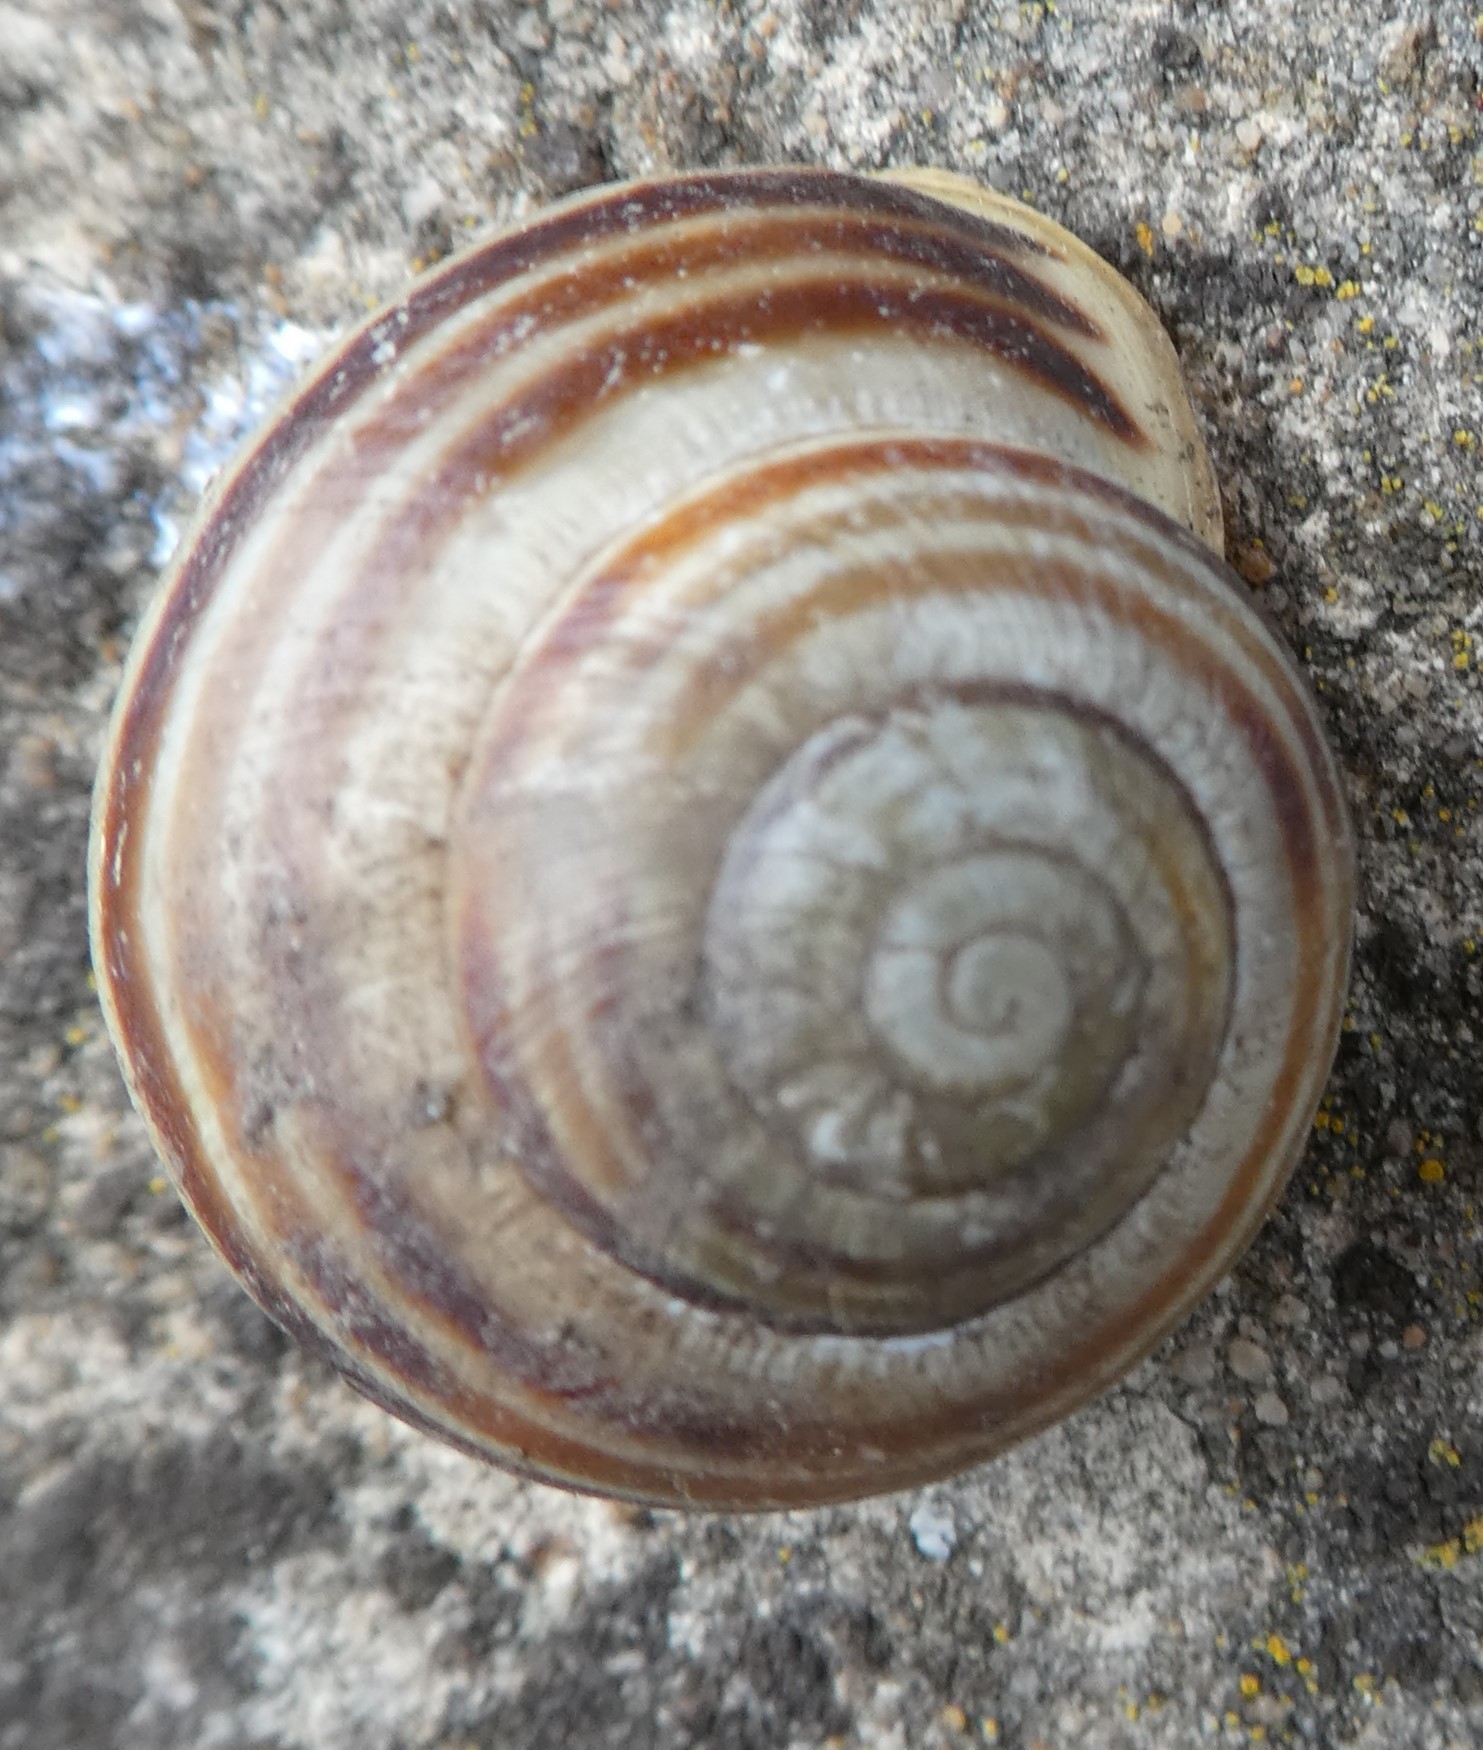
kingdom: Animalia
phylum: Mollusca
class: Gastropoda
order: Stylommatophora
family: Helicidae
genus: Cepaea
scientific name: Cepaea hortensis
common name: White-lip gardensnail
